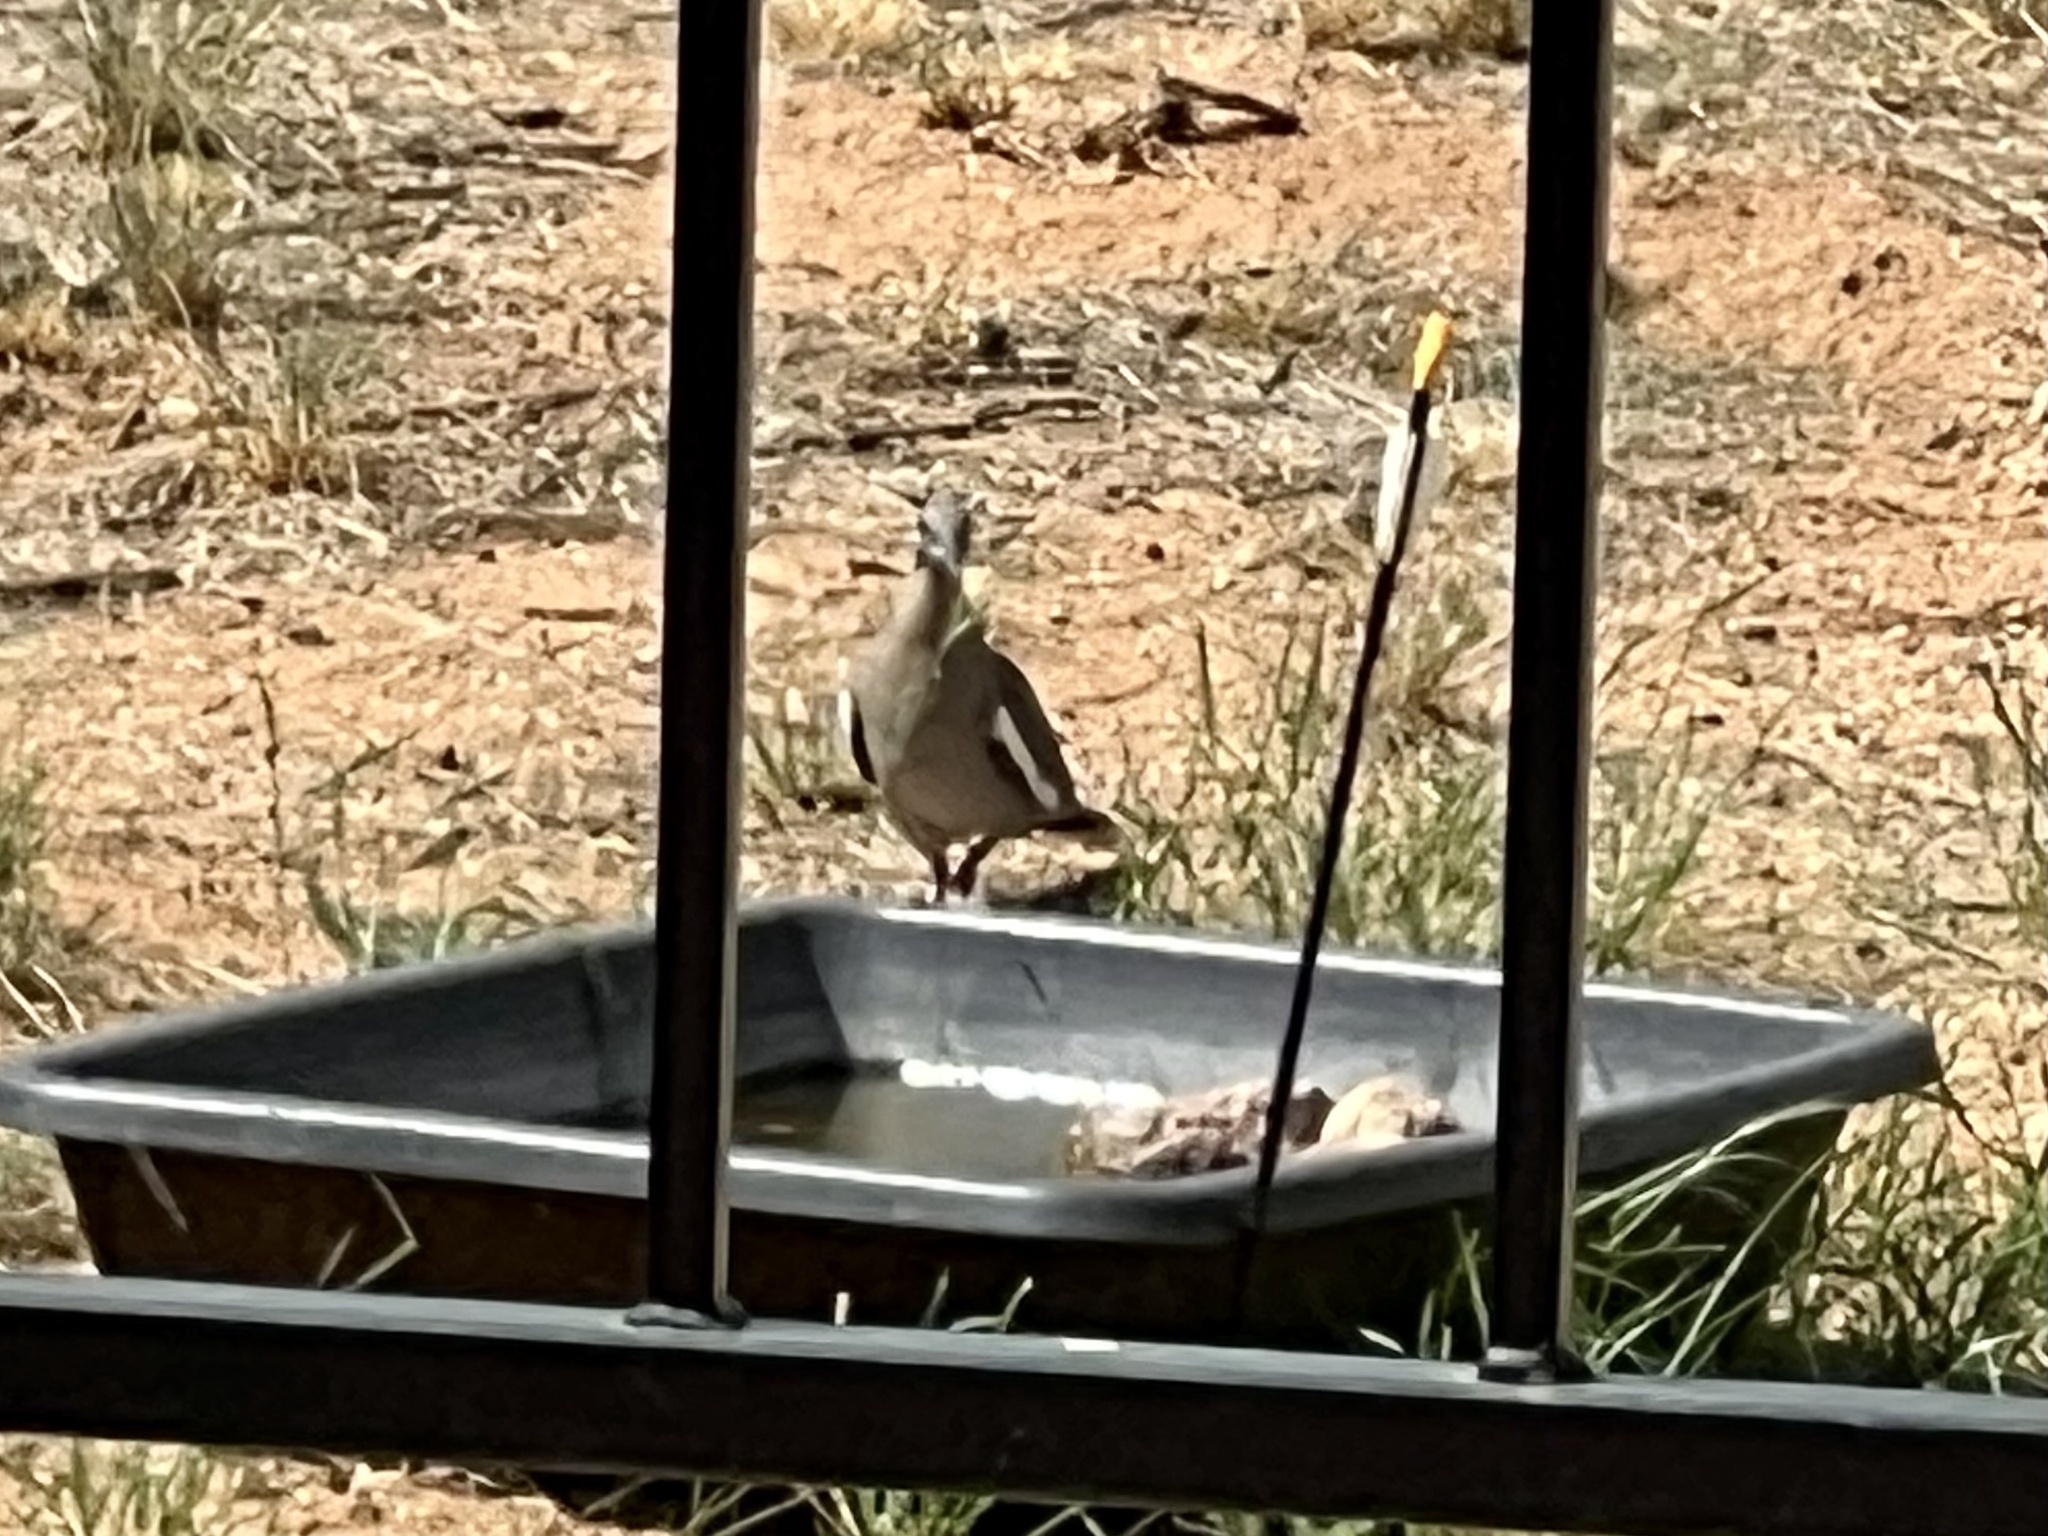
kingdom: Animalia
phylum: Chordata
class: Aves
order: Columbiformes
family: Columbidae
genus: Zenaida
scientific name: Zenaida asiatica
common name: White-winged dove
